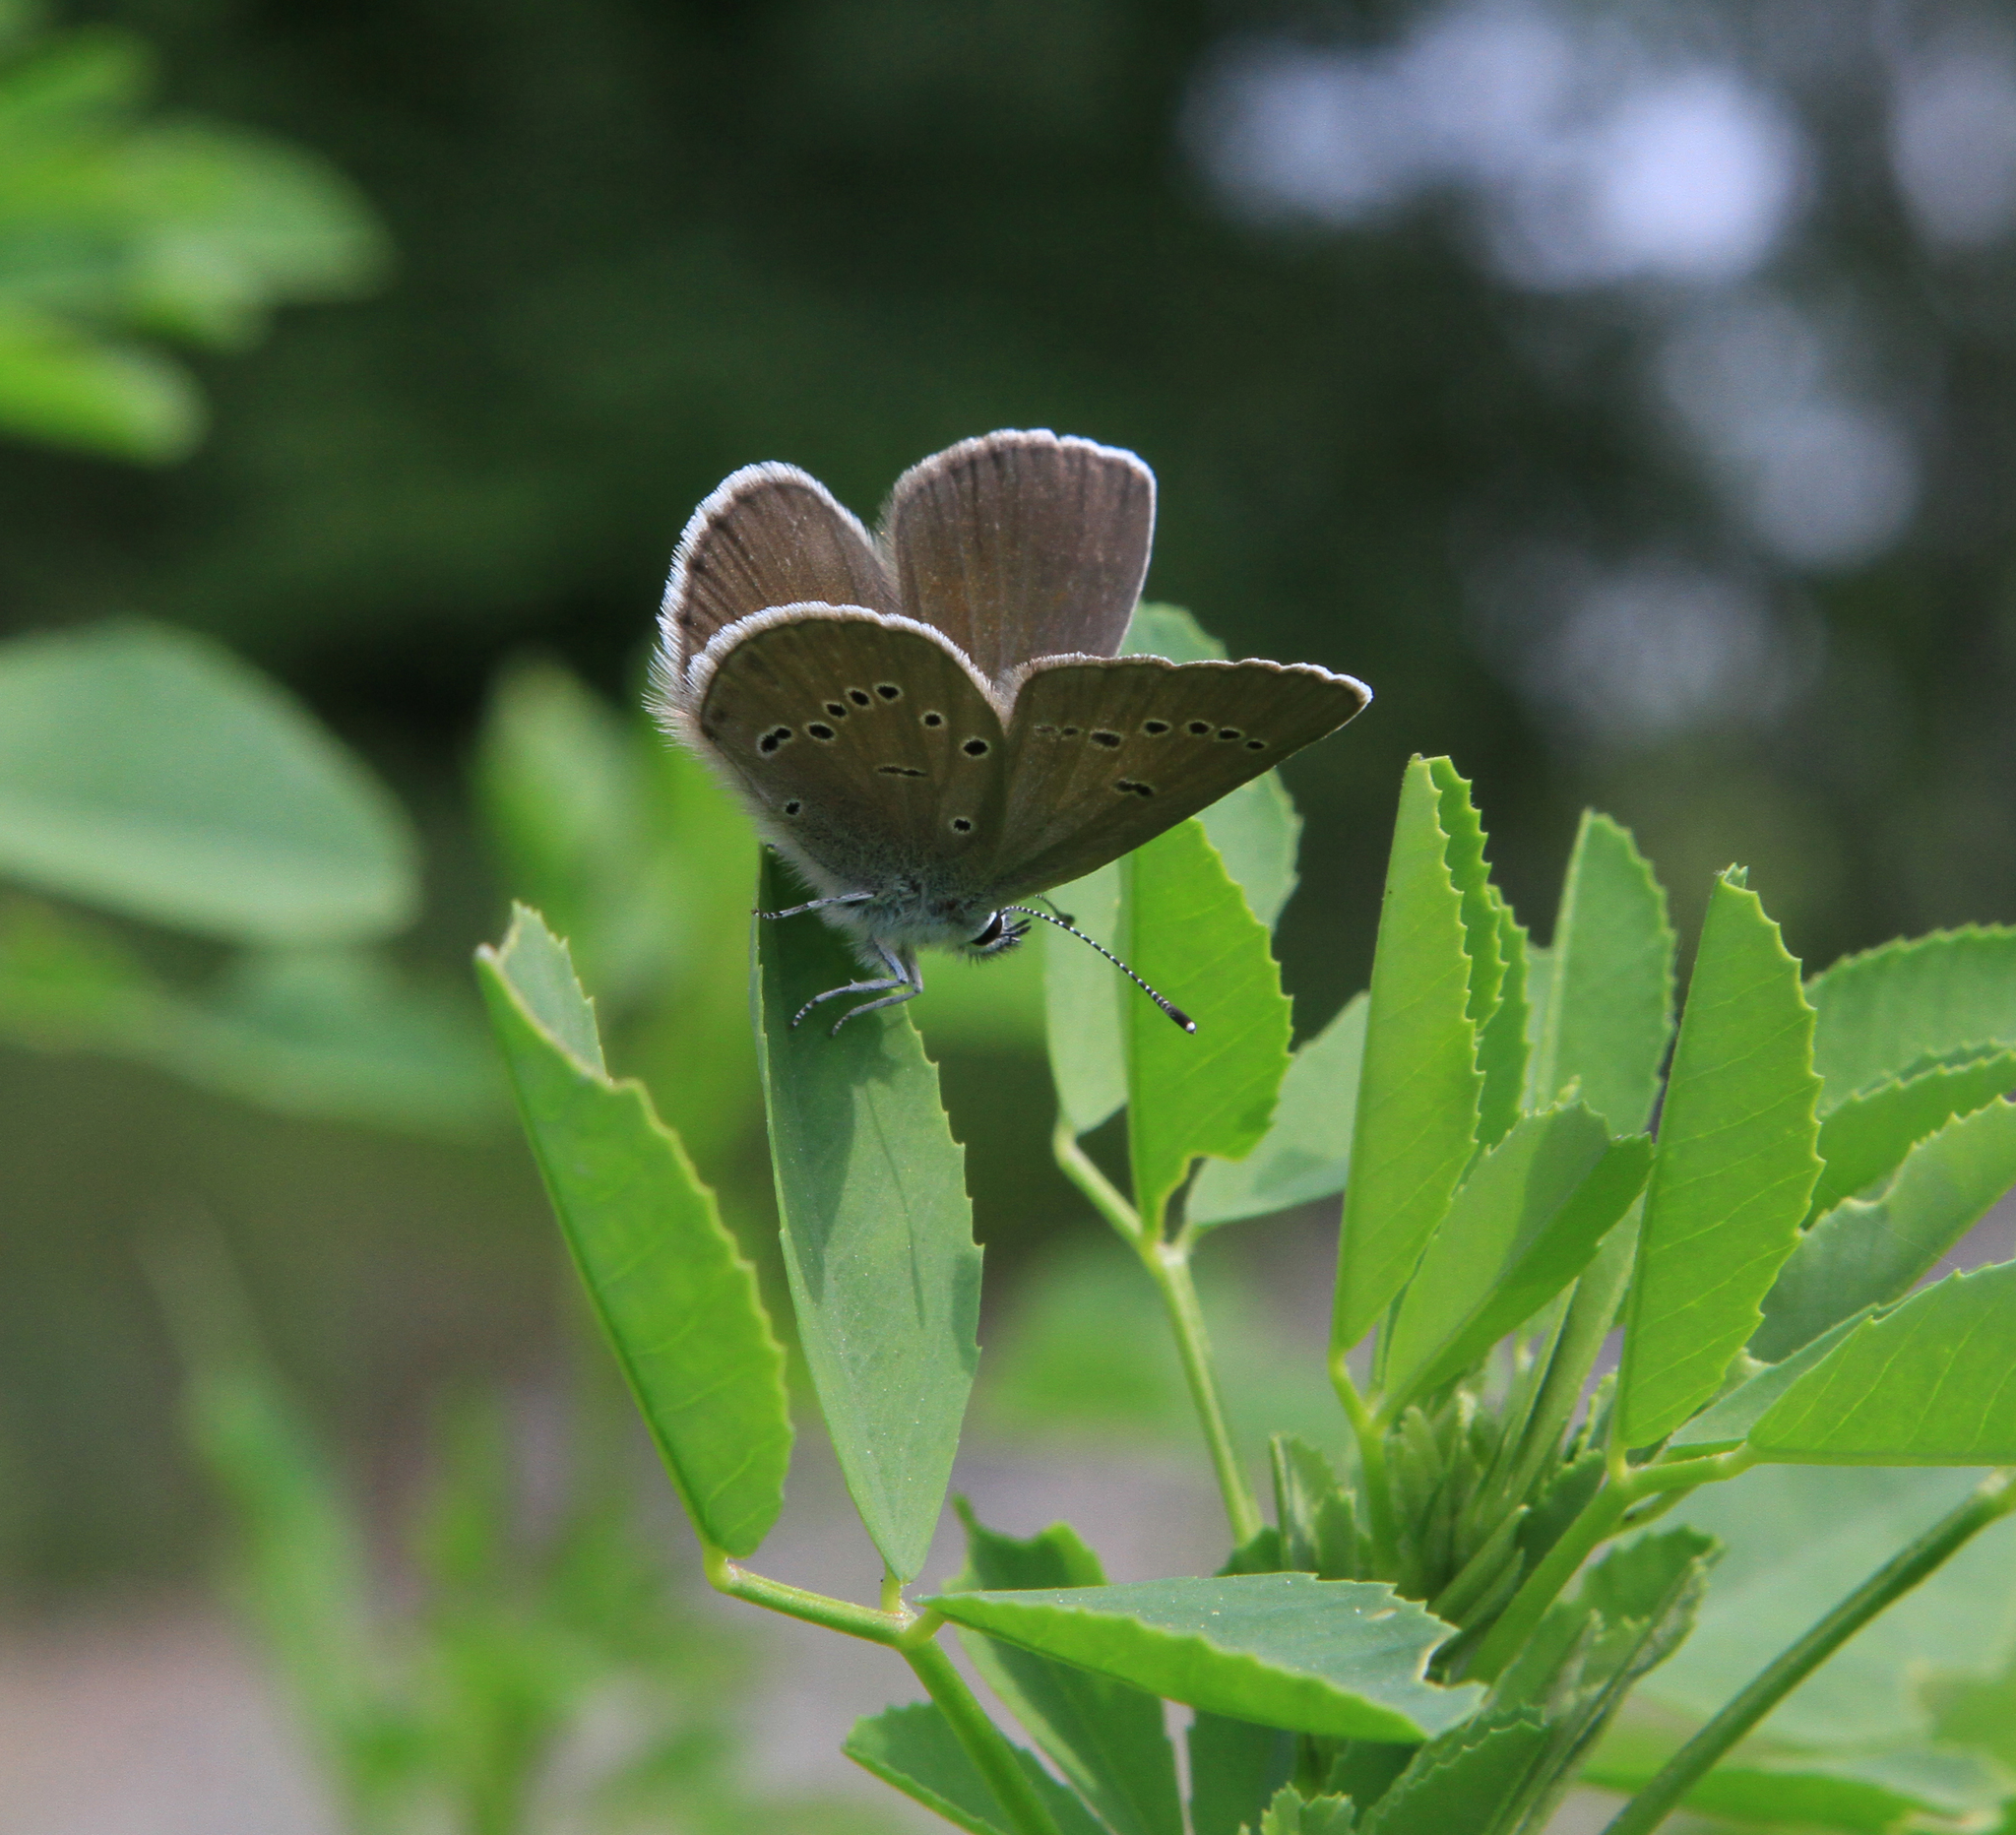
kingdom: Animalia
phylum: Arthropoda
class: Insecta
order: Lepidoptera
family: Lycaenidae
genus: Cyaniris
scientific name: Cyaniris semiargus
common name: Mazarine blue
